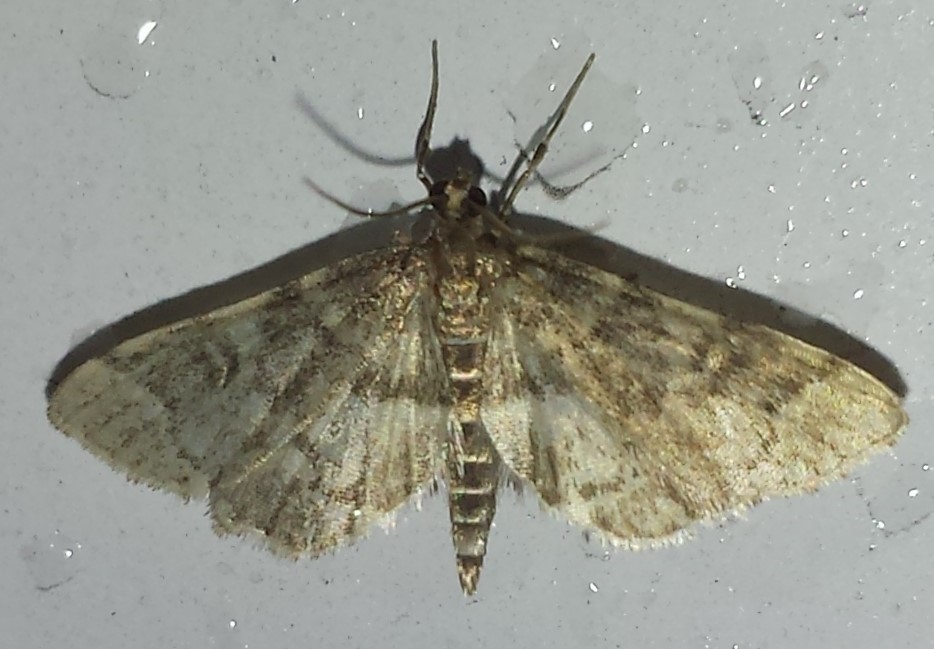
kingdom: Animalia
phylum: Arthropoda
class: Insecta
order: Lepidoptera
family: Crambidae
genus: Anageshna
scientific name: Anageshna primordialis
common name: Yellow-spotted webworm moth
